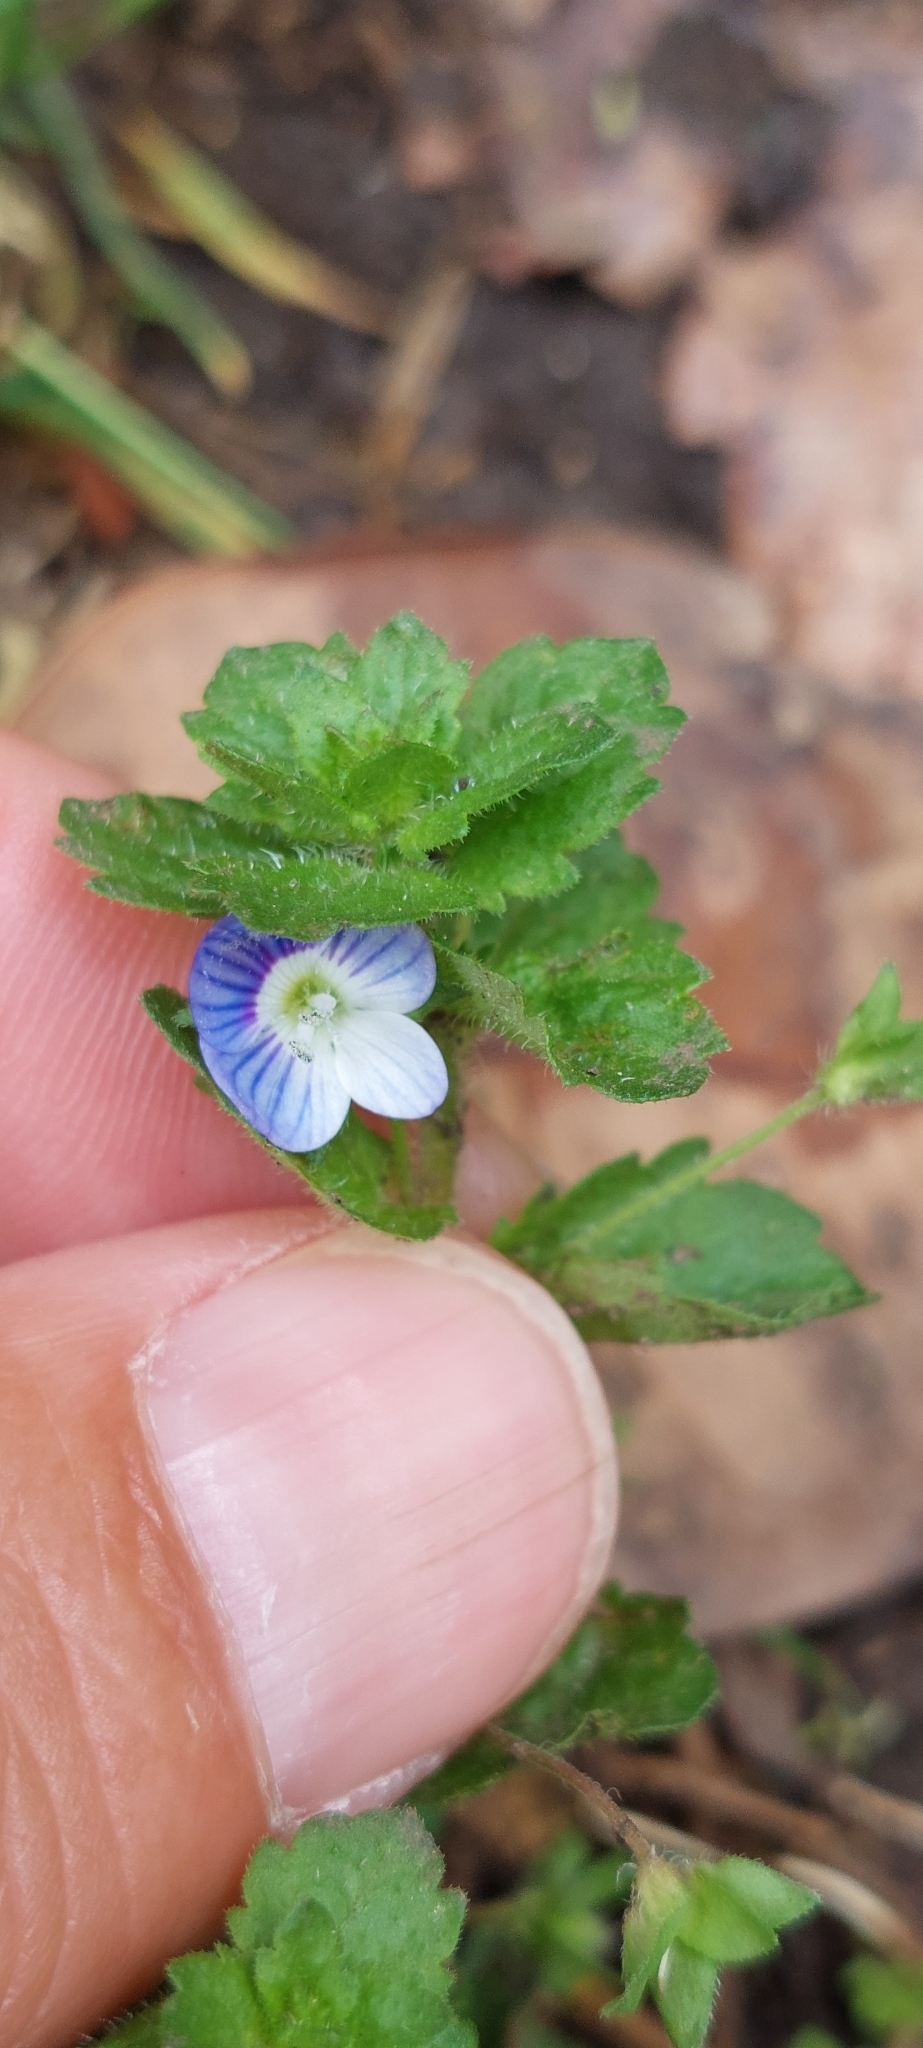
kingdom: Plantae
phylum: Tracheophyta
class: Magnoliopsida
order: Lamiales
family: Plantaginaceae
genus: Veronica
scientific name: Veronica persica
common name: Common field-speedwell
